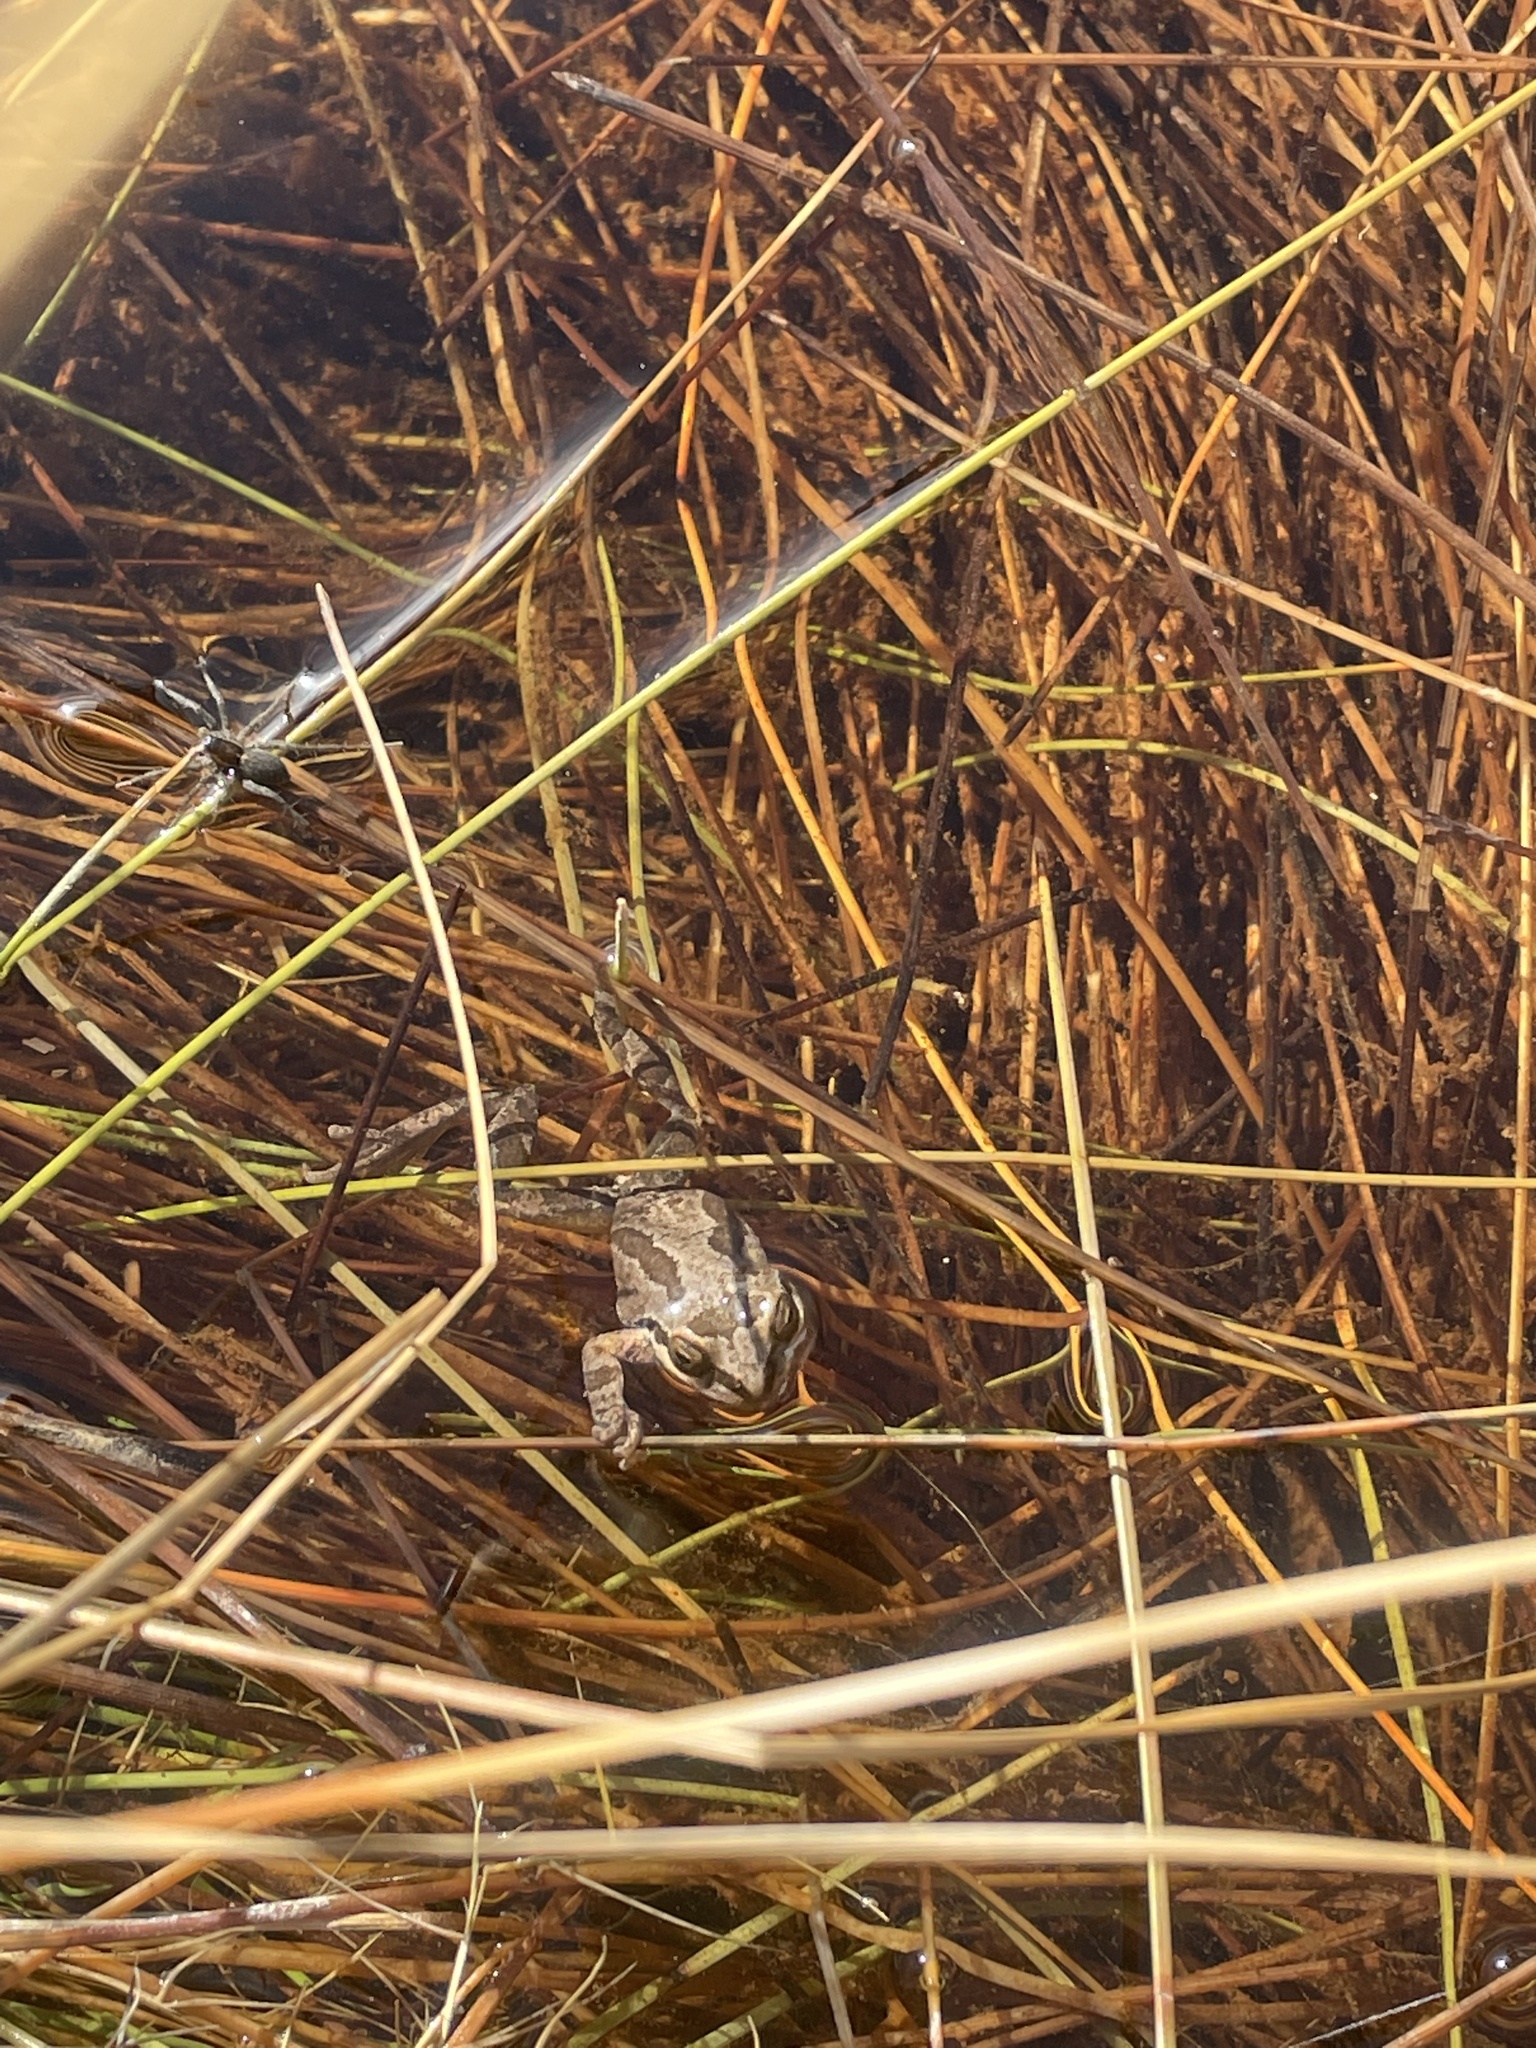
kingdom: Animalia
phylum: Chordata
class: Amphibia
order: Anura
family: Hylidae
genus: Pseudacris
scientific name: Pseudacris regilla
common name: Pacific chorus frog
